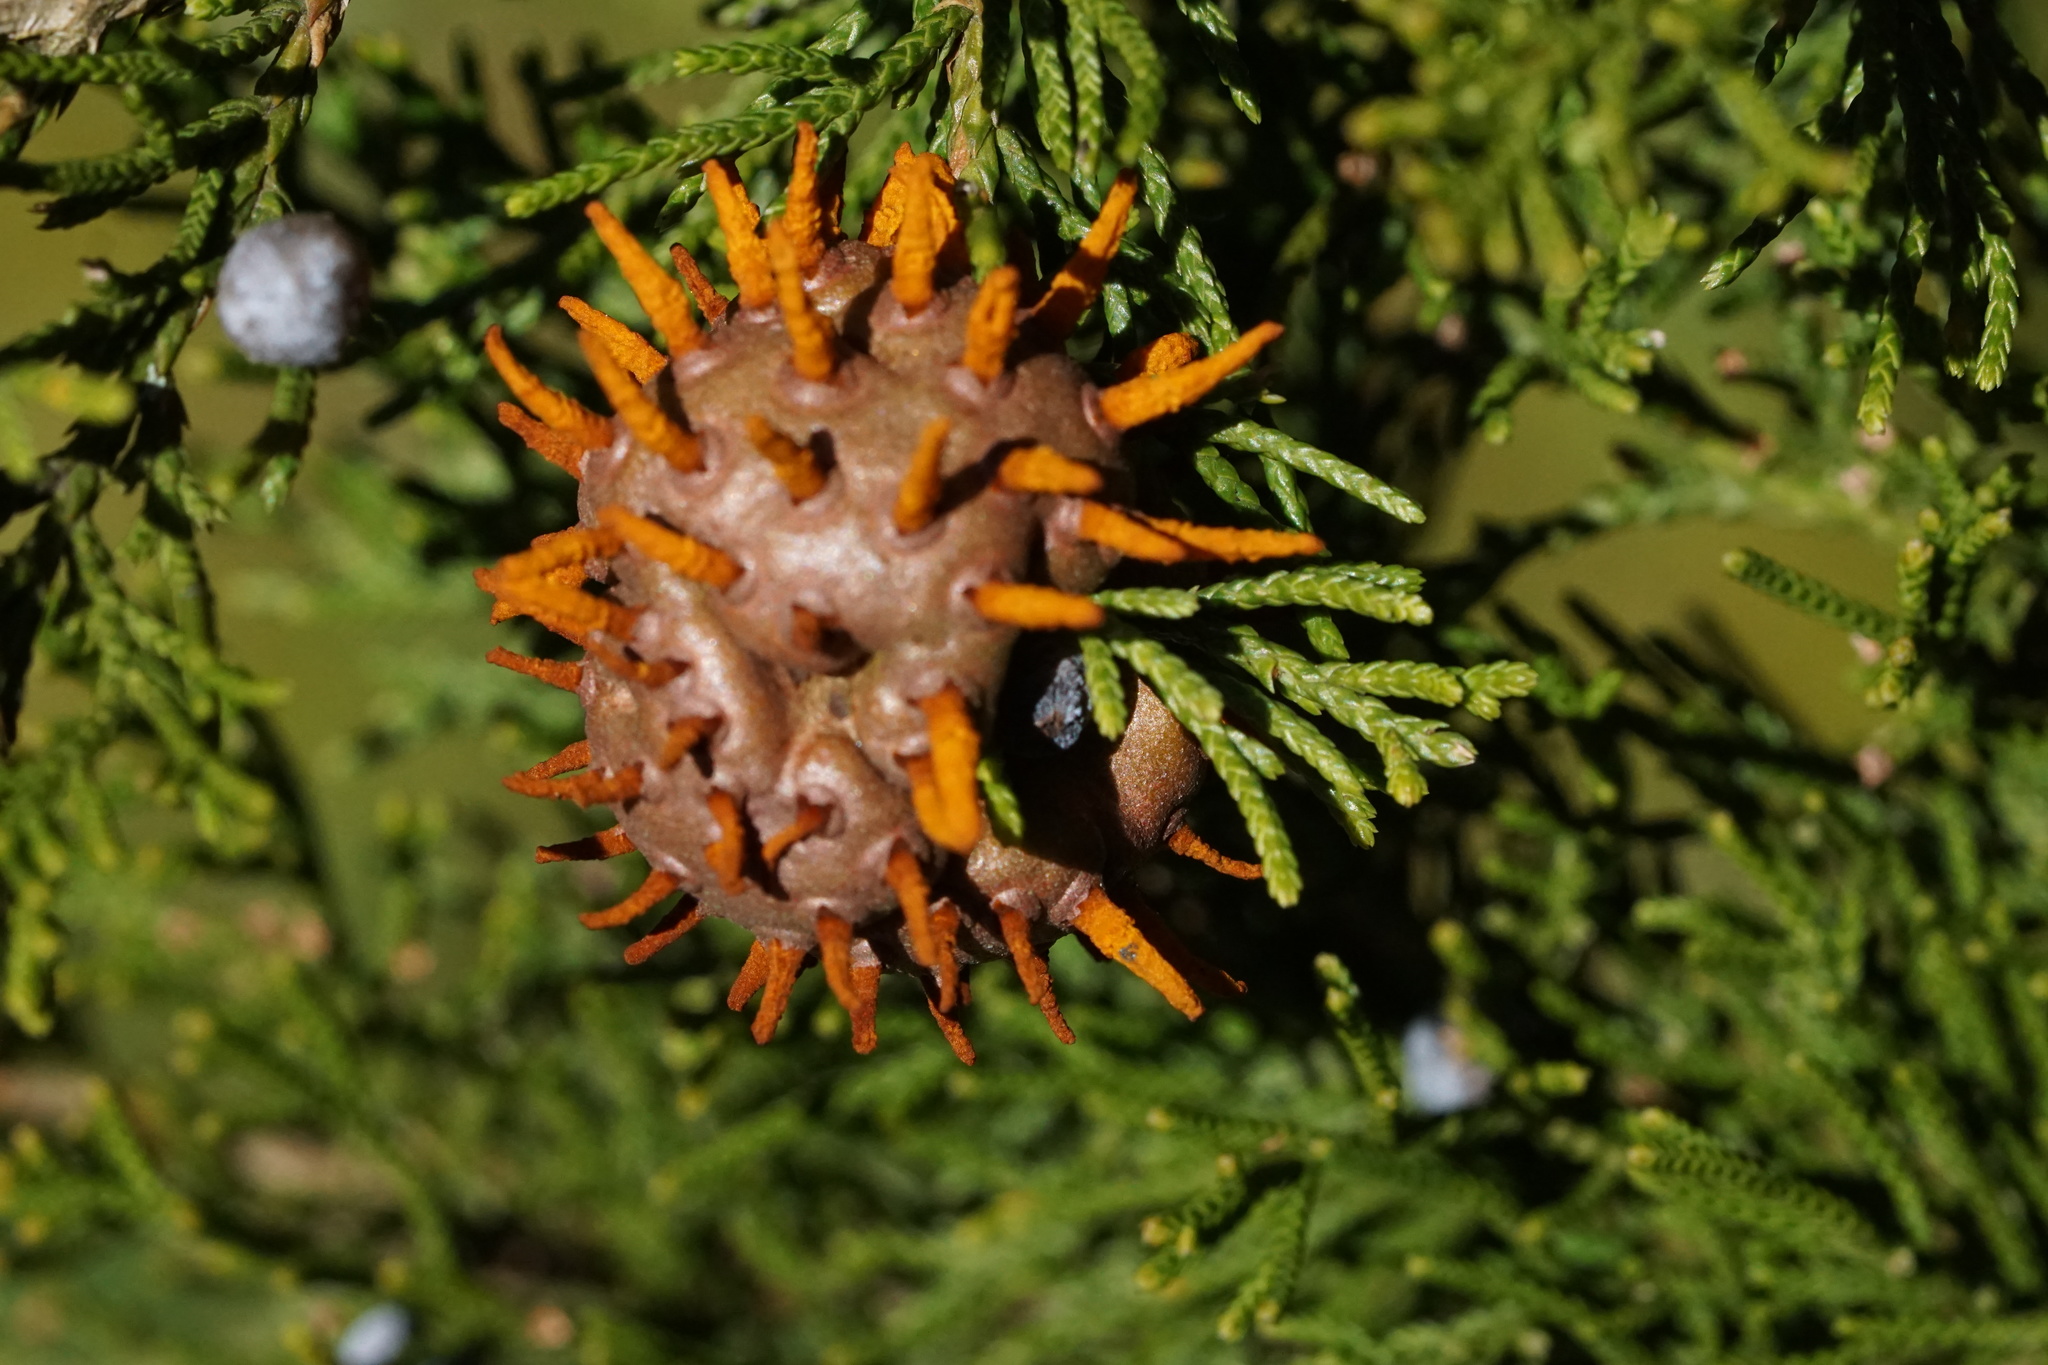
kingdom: Fungi
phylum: Basidiomycota
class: Pucciniomycetes
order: Pucciniales
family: Gymnosporangiaceae
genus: Gymnosporangium
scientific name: Gymnosporangium juniperi-virginianae
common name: Juniper-apple rust
